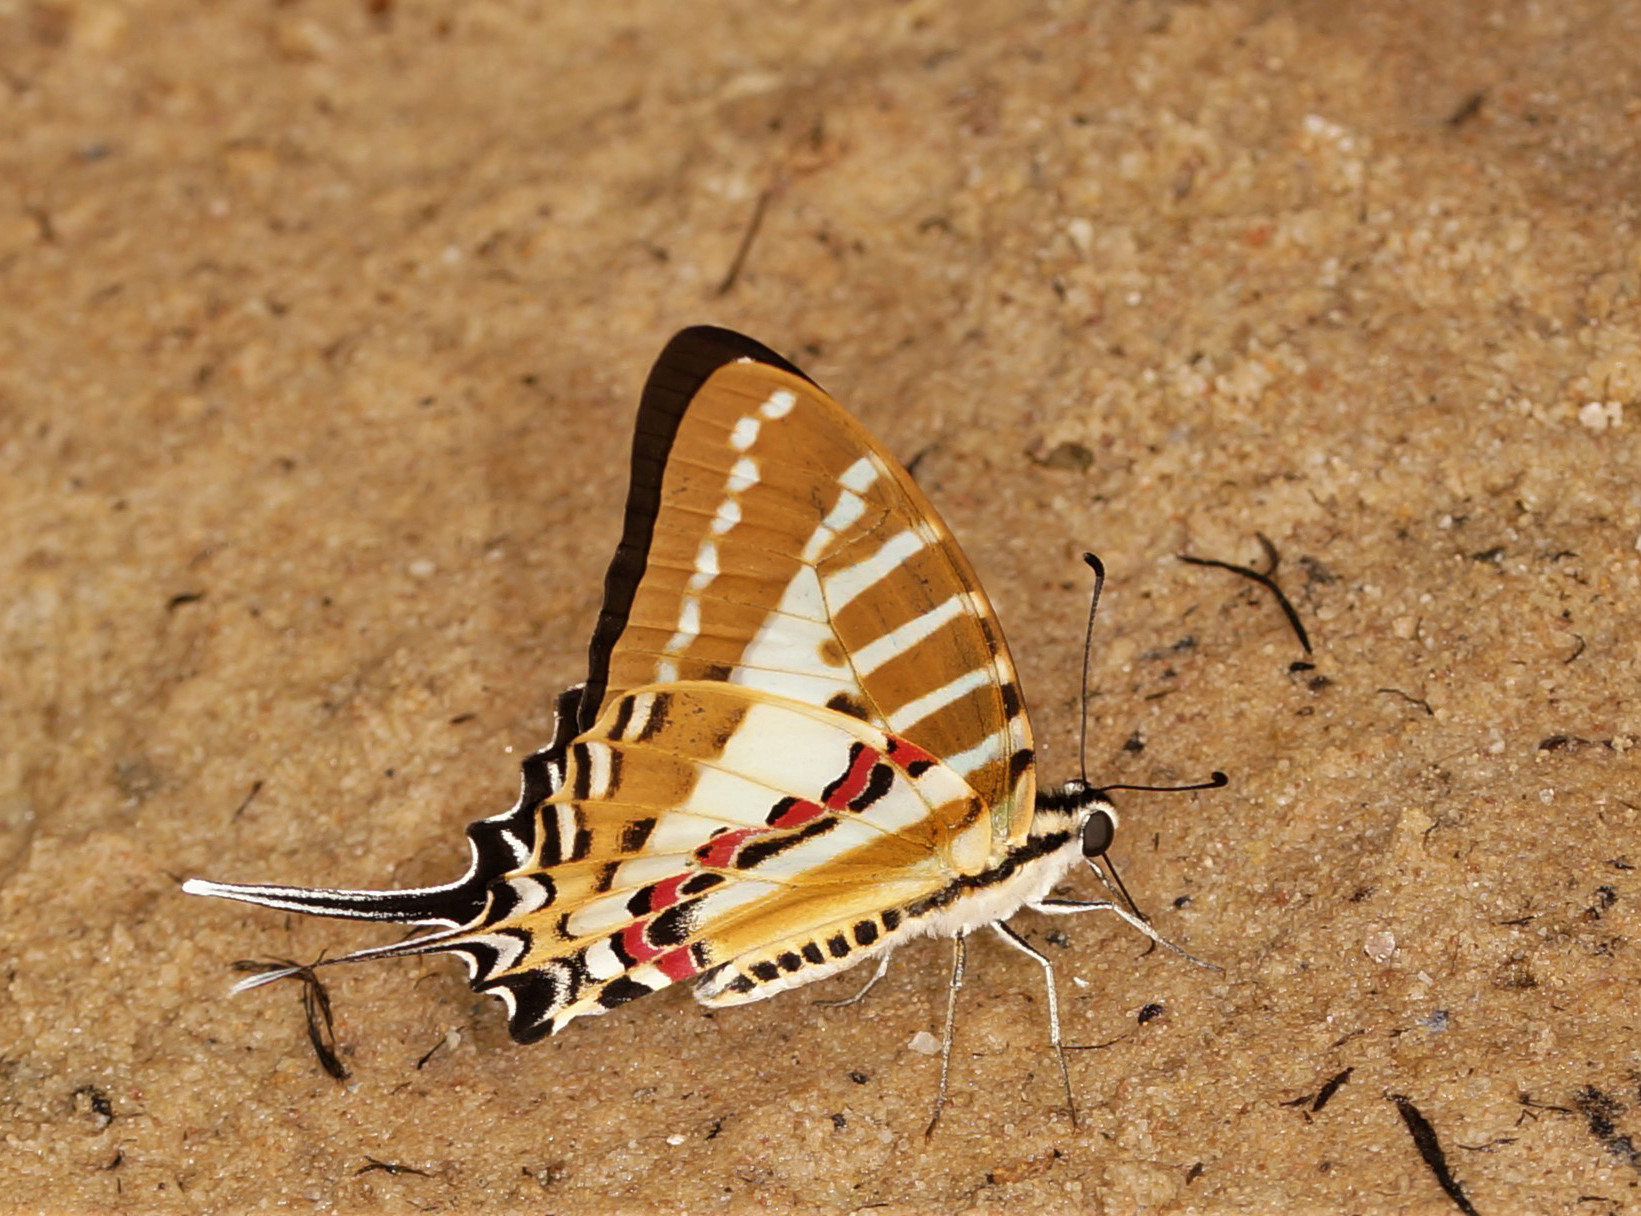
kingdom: Animalia
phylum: Arthropoda
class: Insecta
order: Lepidoptera
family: Papilionidae
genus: Graphium
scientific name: Graphium nomius
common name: Spot swordtail
